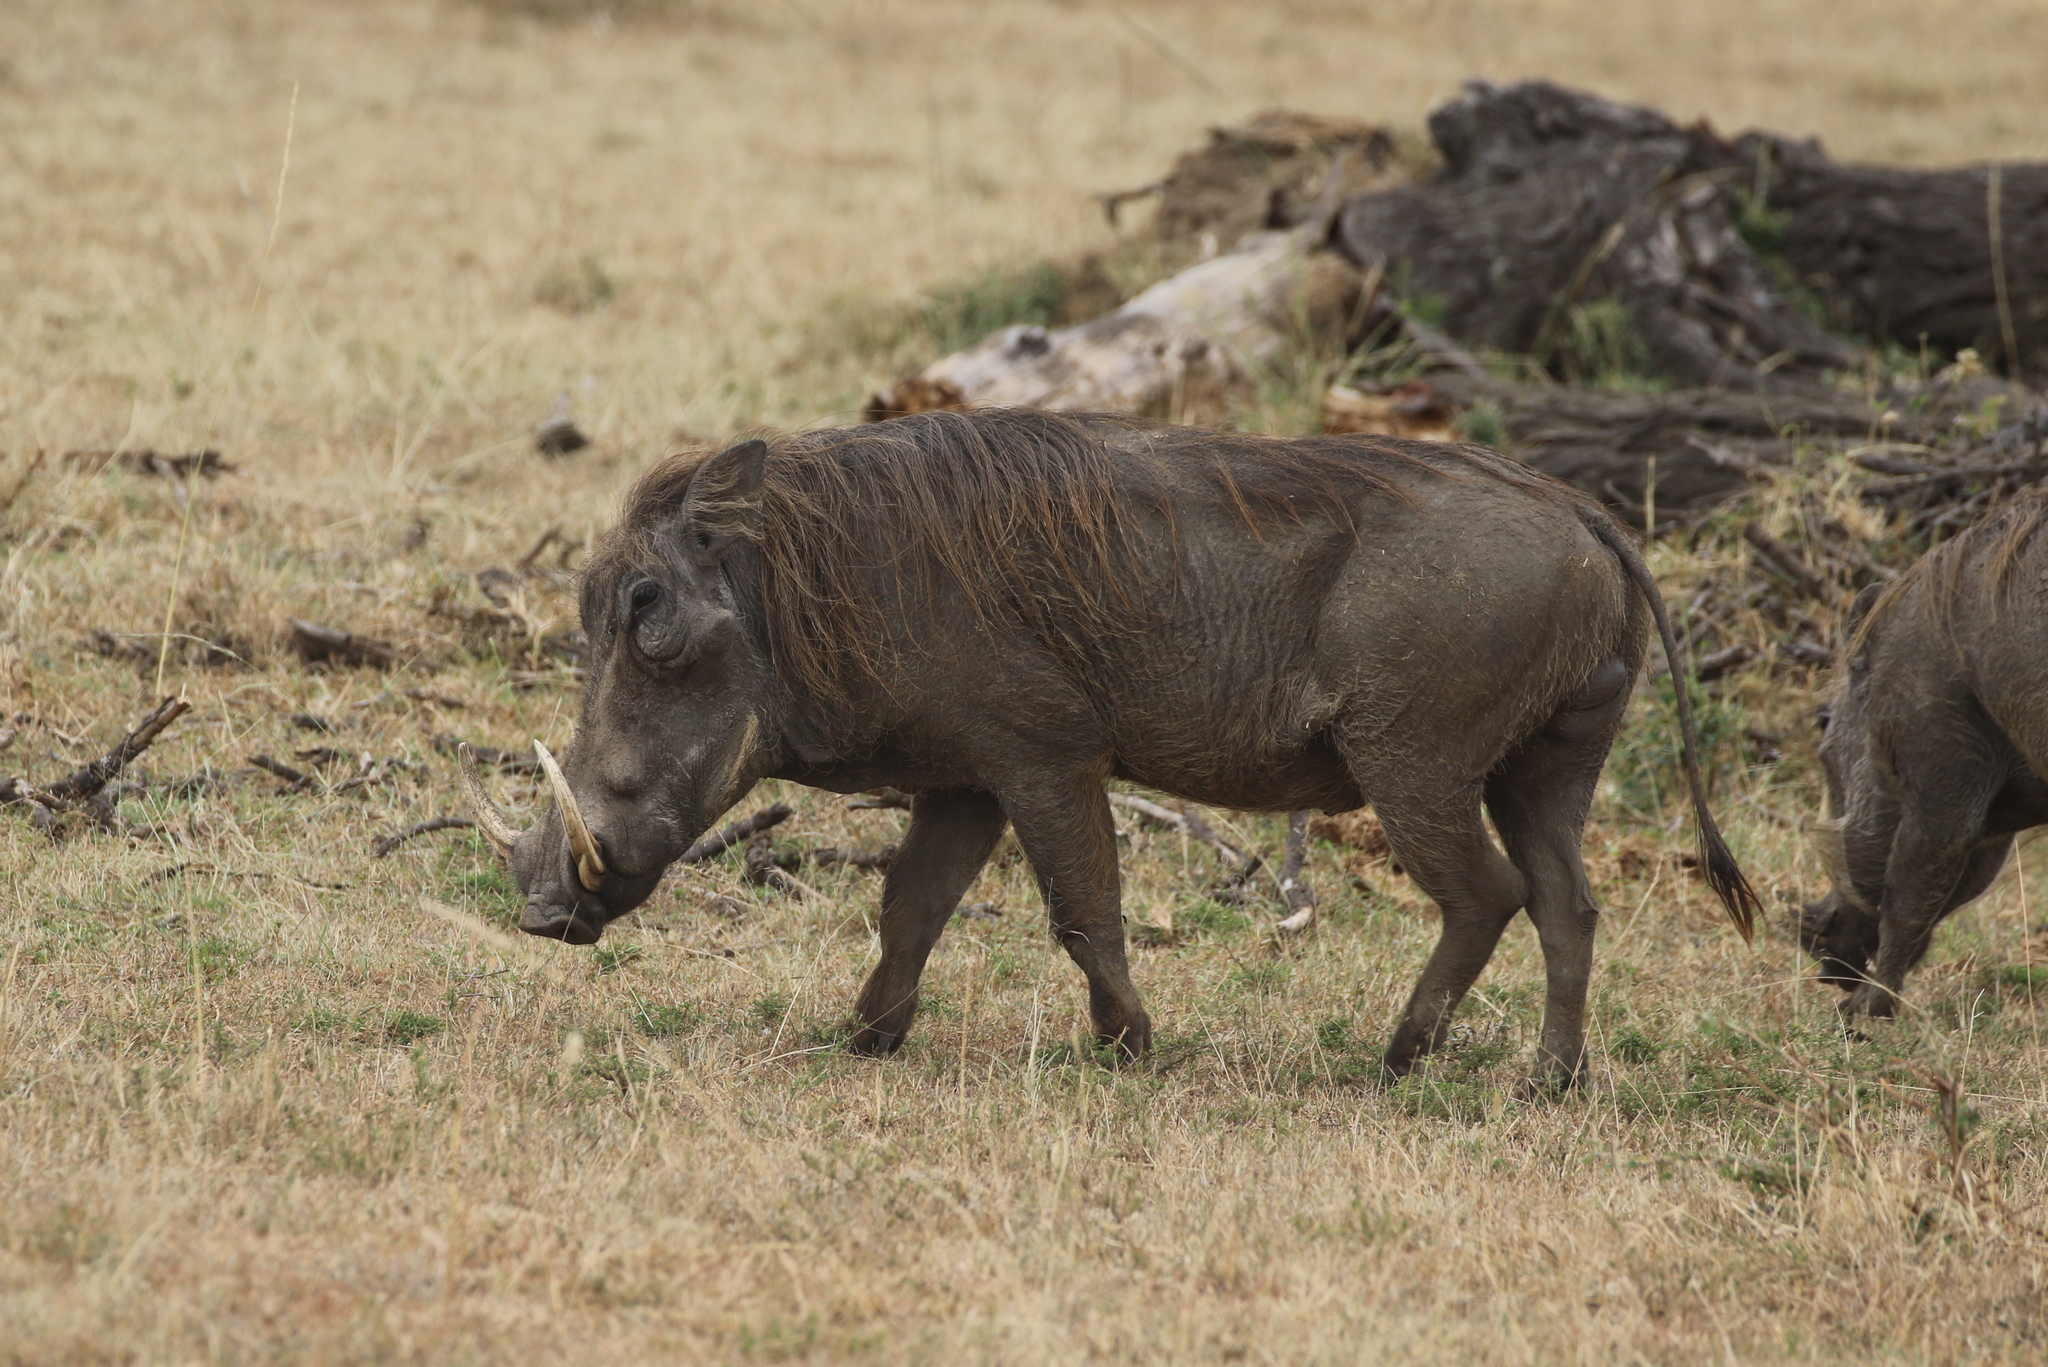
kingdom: Animalia
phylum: Chordata
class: Mammalia
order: Artiodactyla
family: Suidae
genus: Phacochoerus
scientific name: Phacochoerus africanus
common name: Common warthog
